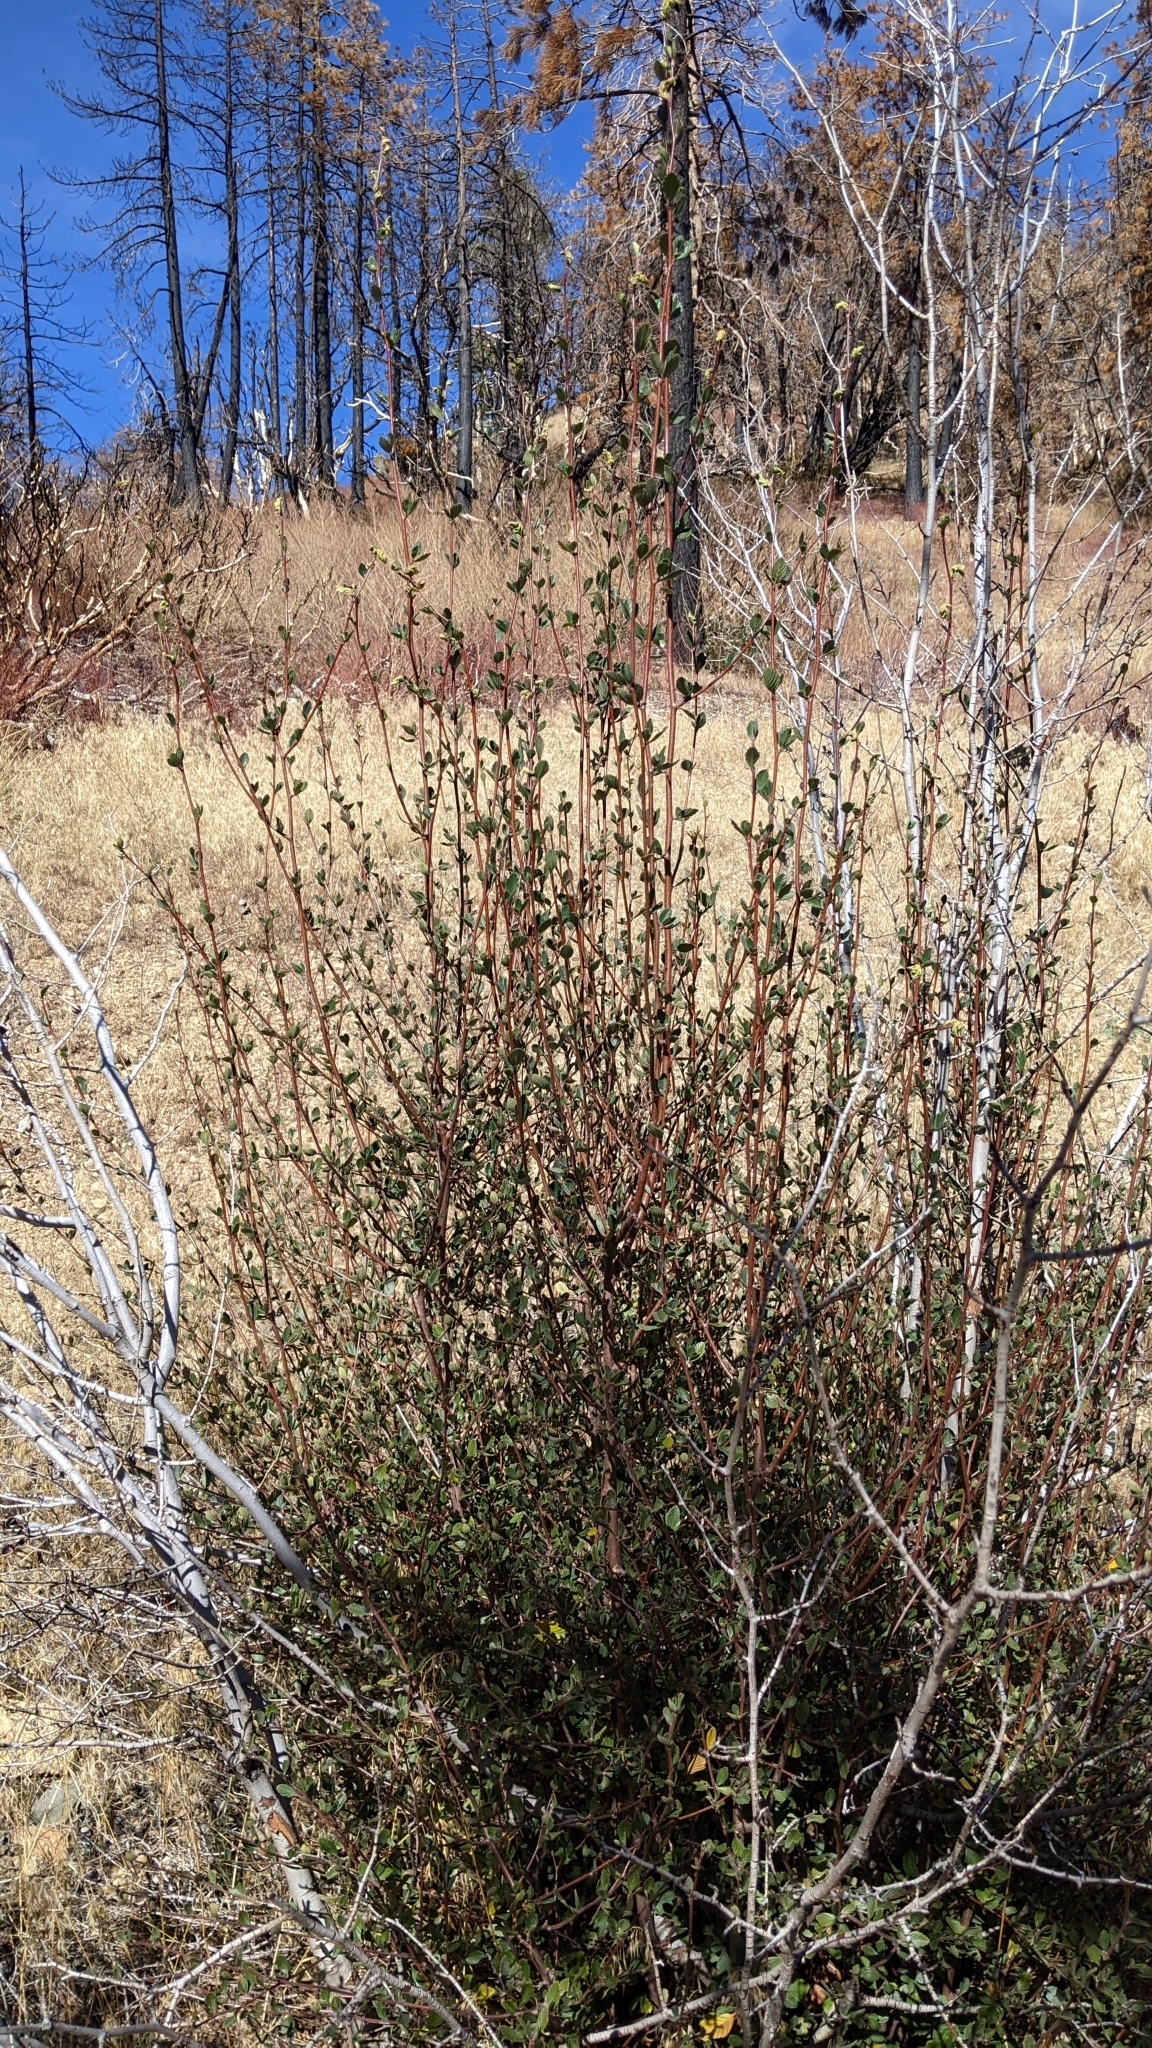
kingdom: Plantae
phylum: Tracheophyta
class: Magnoliopsida
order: Rosales
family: Rosaceae
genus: Cercocarpus
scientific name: Cercocarpus betuloides
